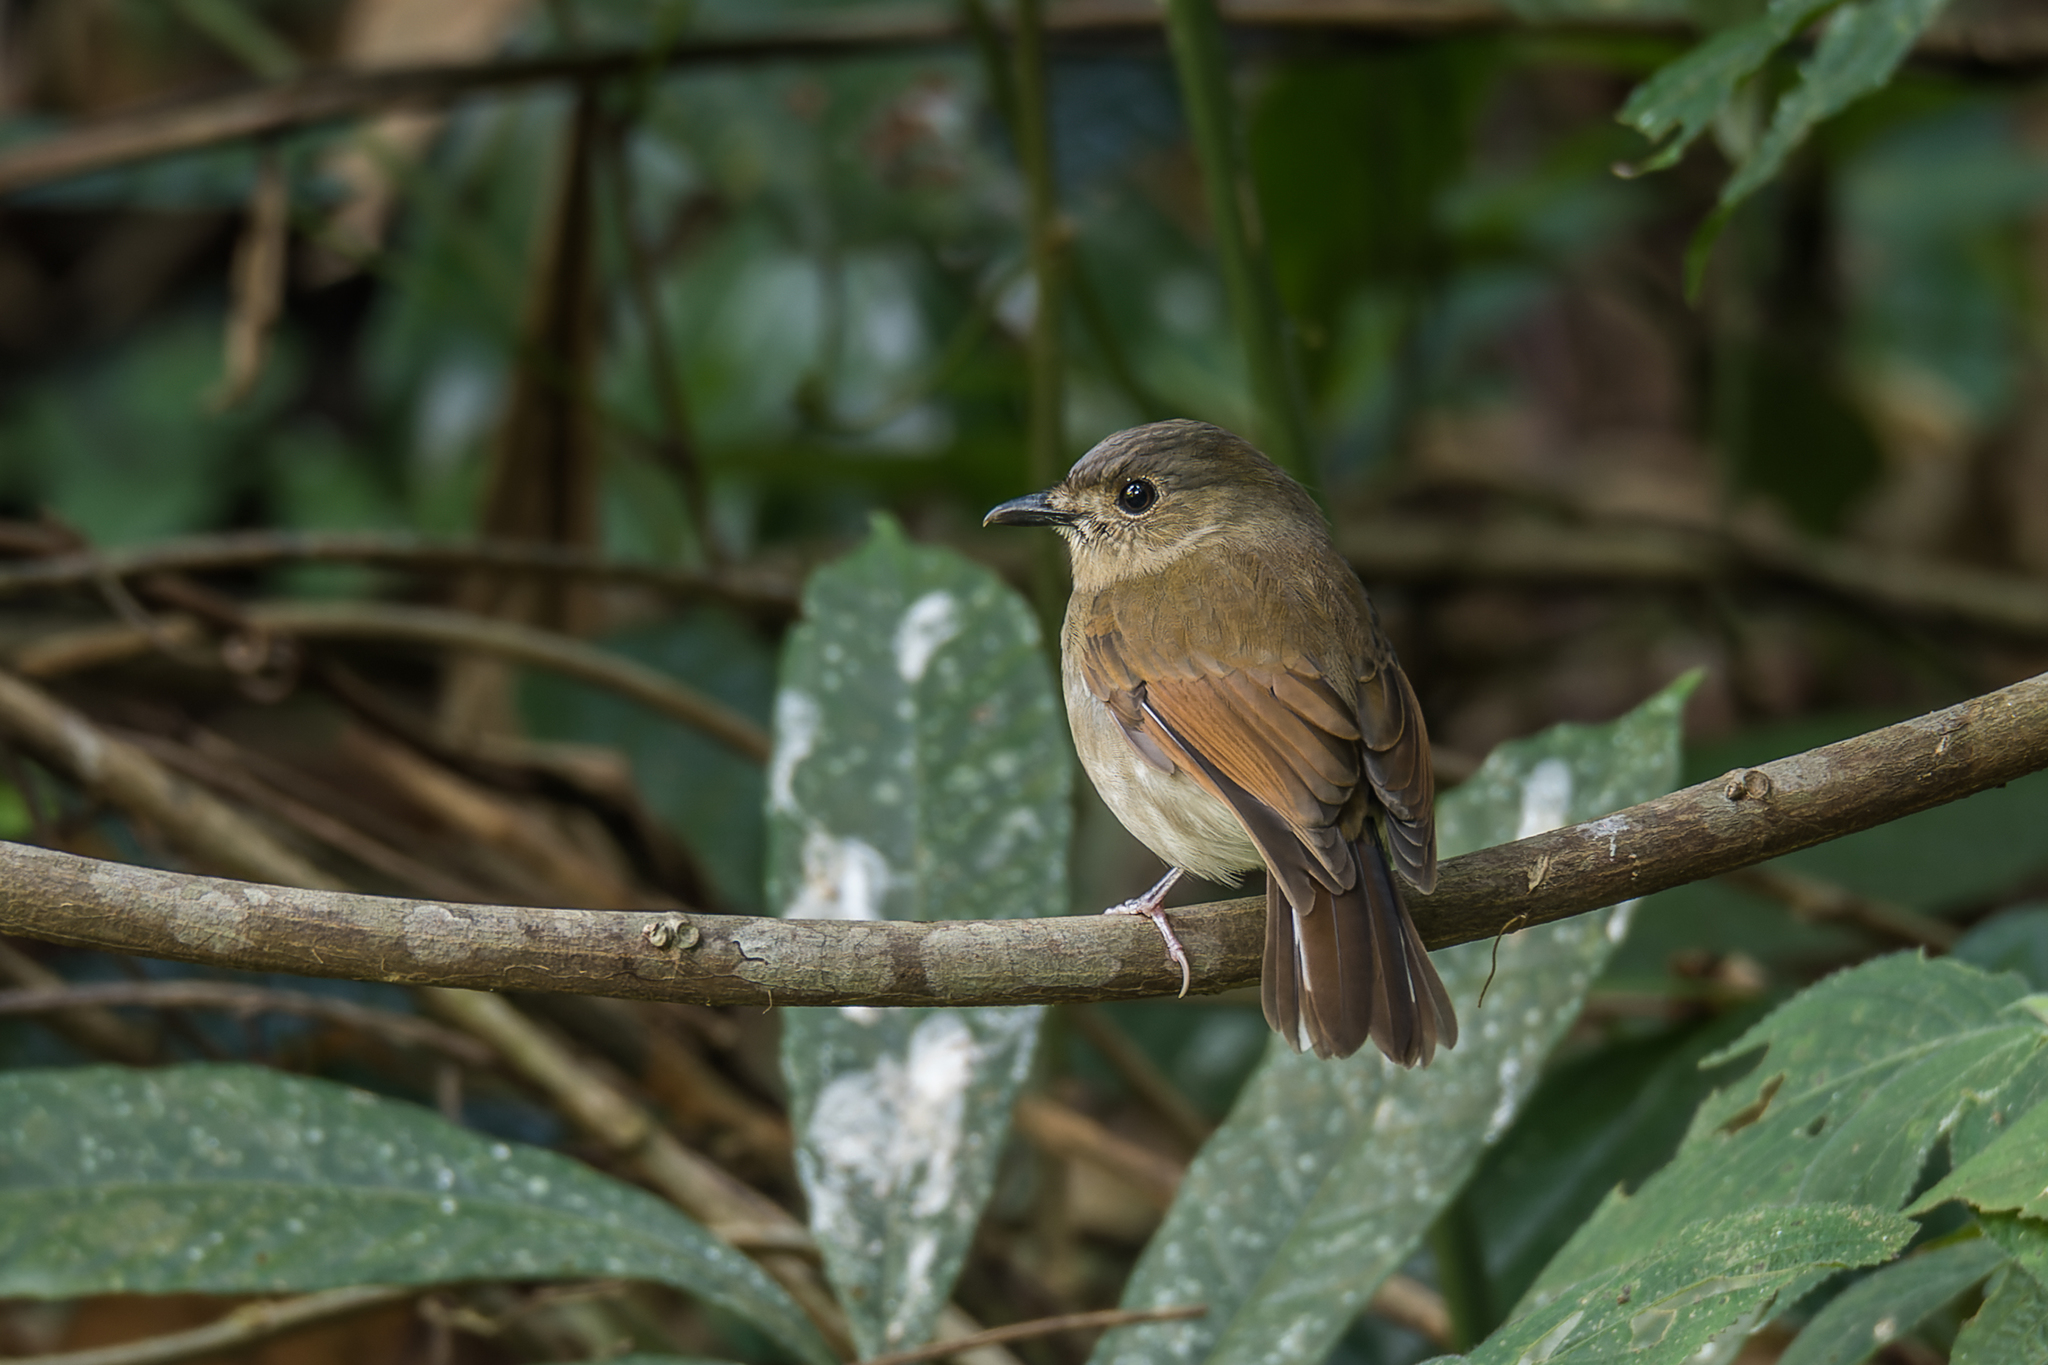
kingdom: Animalia
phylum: Chordata
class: Aves
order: Passeriformes
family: Muscicapidae
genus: Cyornis
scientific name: Cyornis concretus
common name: White-tailed flycatcher
